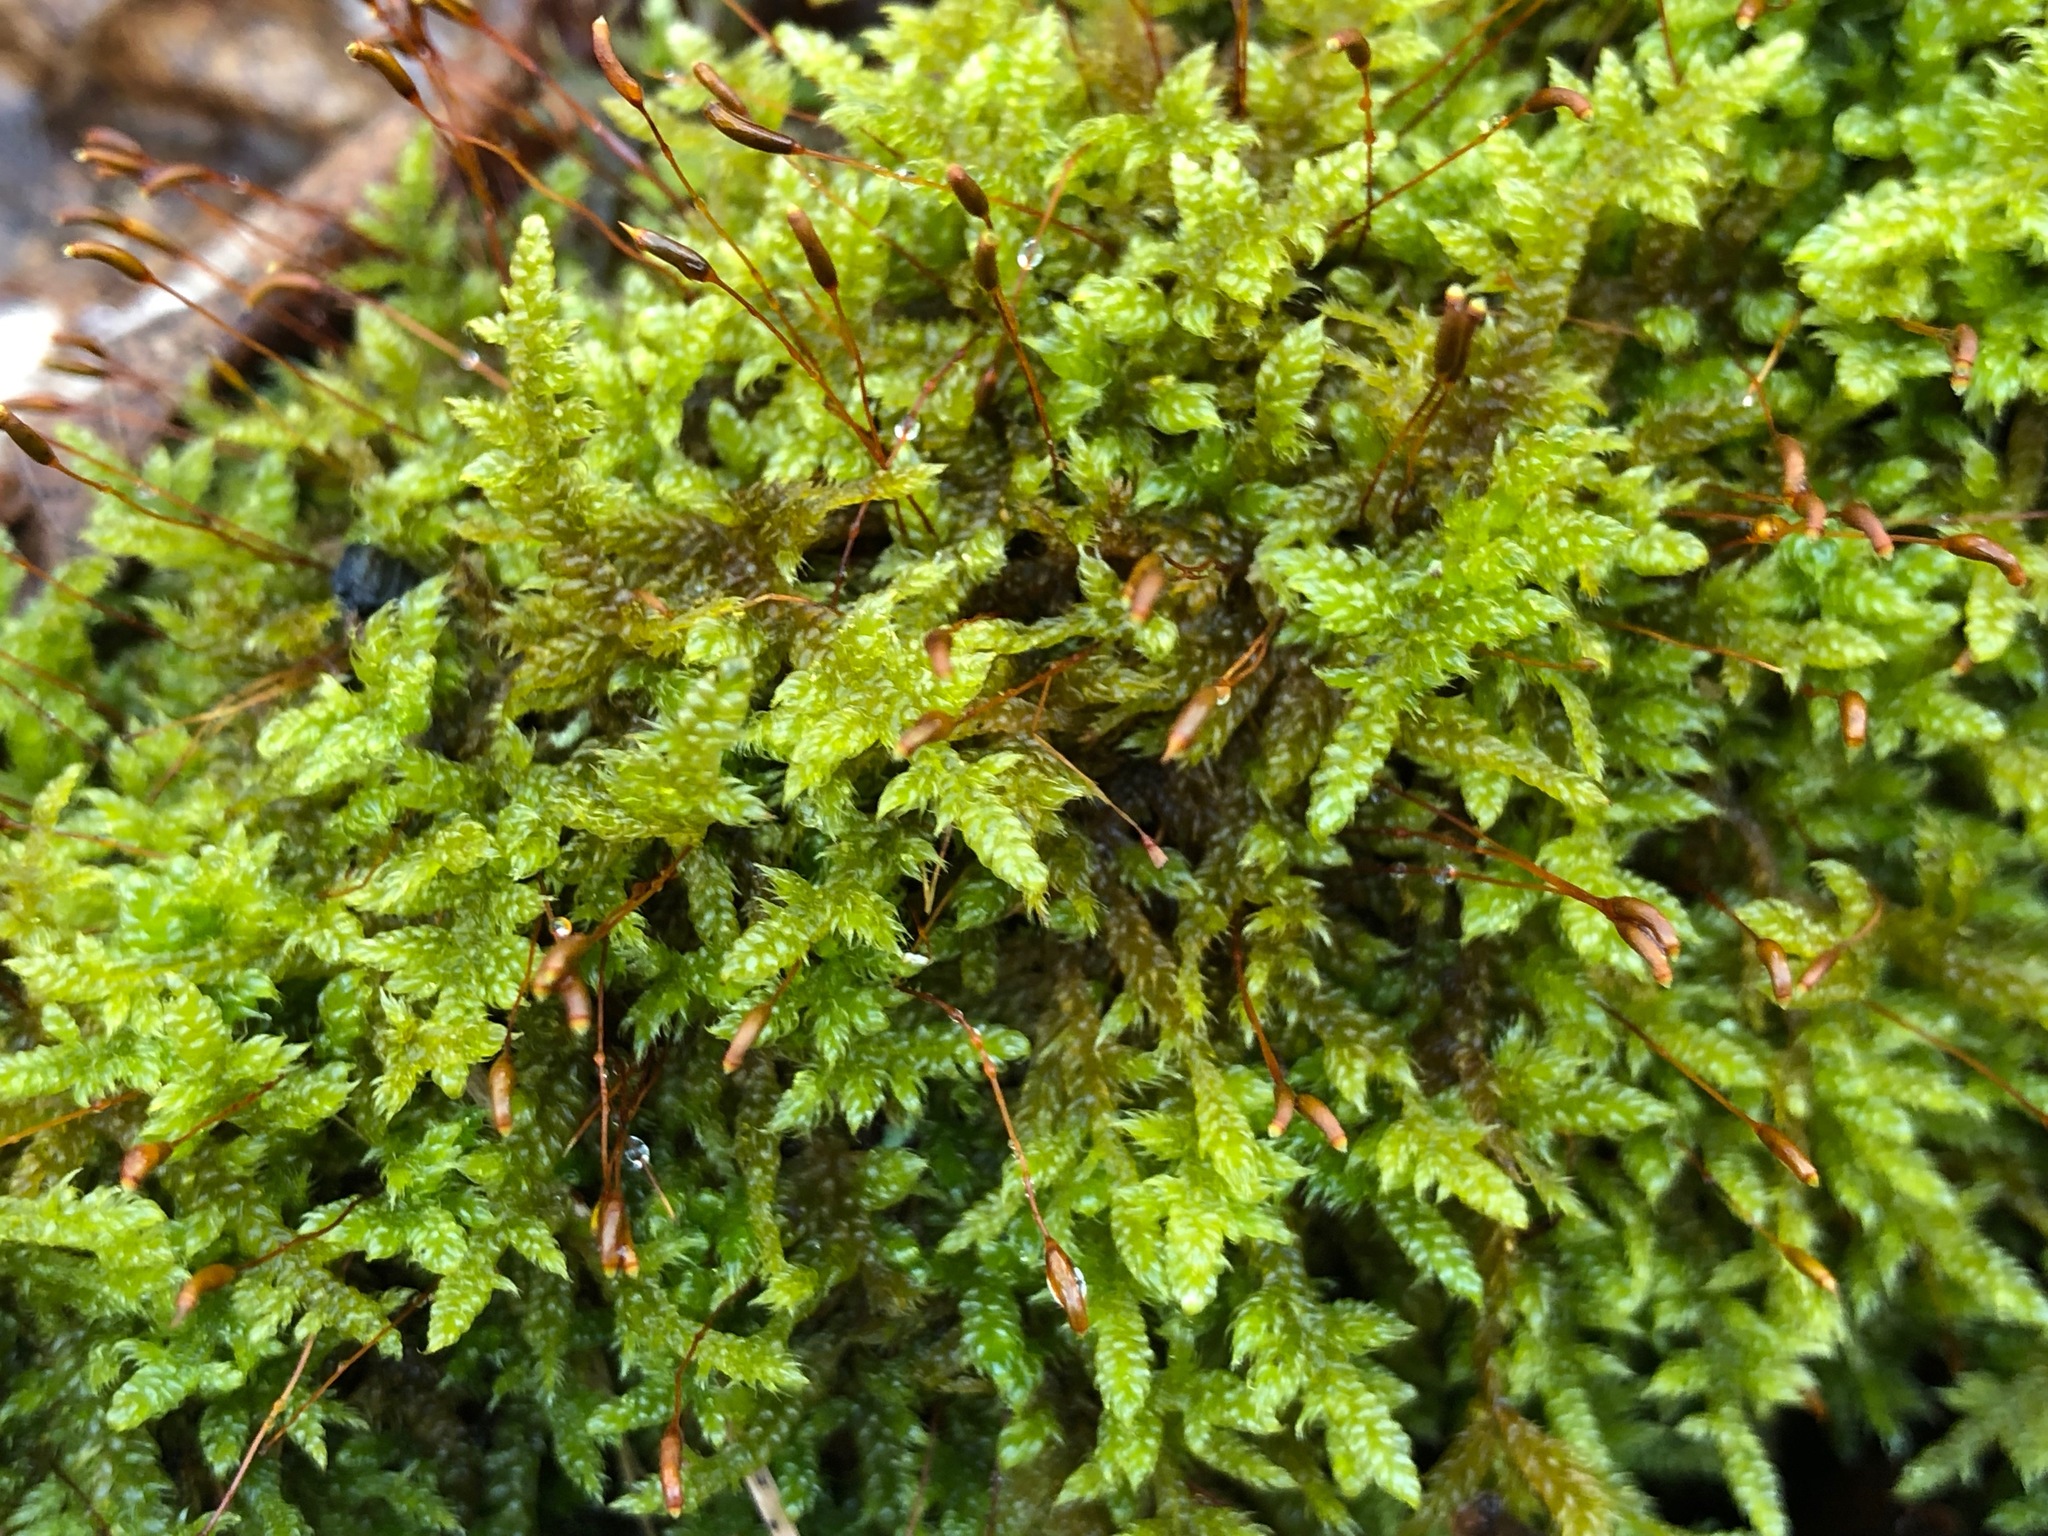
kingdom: Plantae
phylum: Bryophyta
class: Bryopsida
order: Hypnales
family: Hypnaceae
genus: Hypnum
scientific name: Hypnum cupressiforme
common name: Cypress-leaved plait-moss
